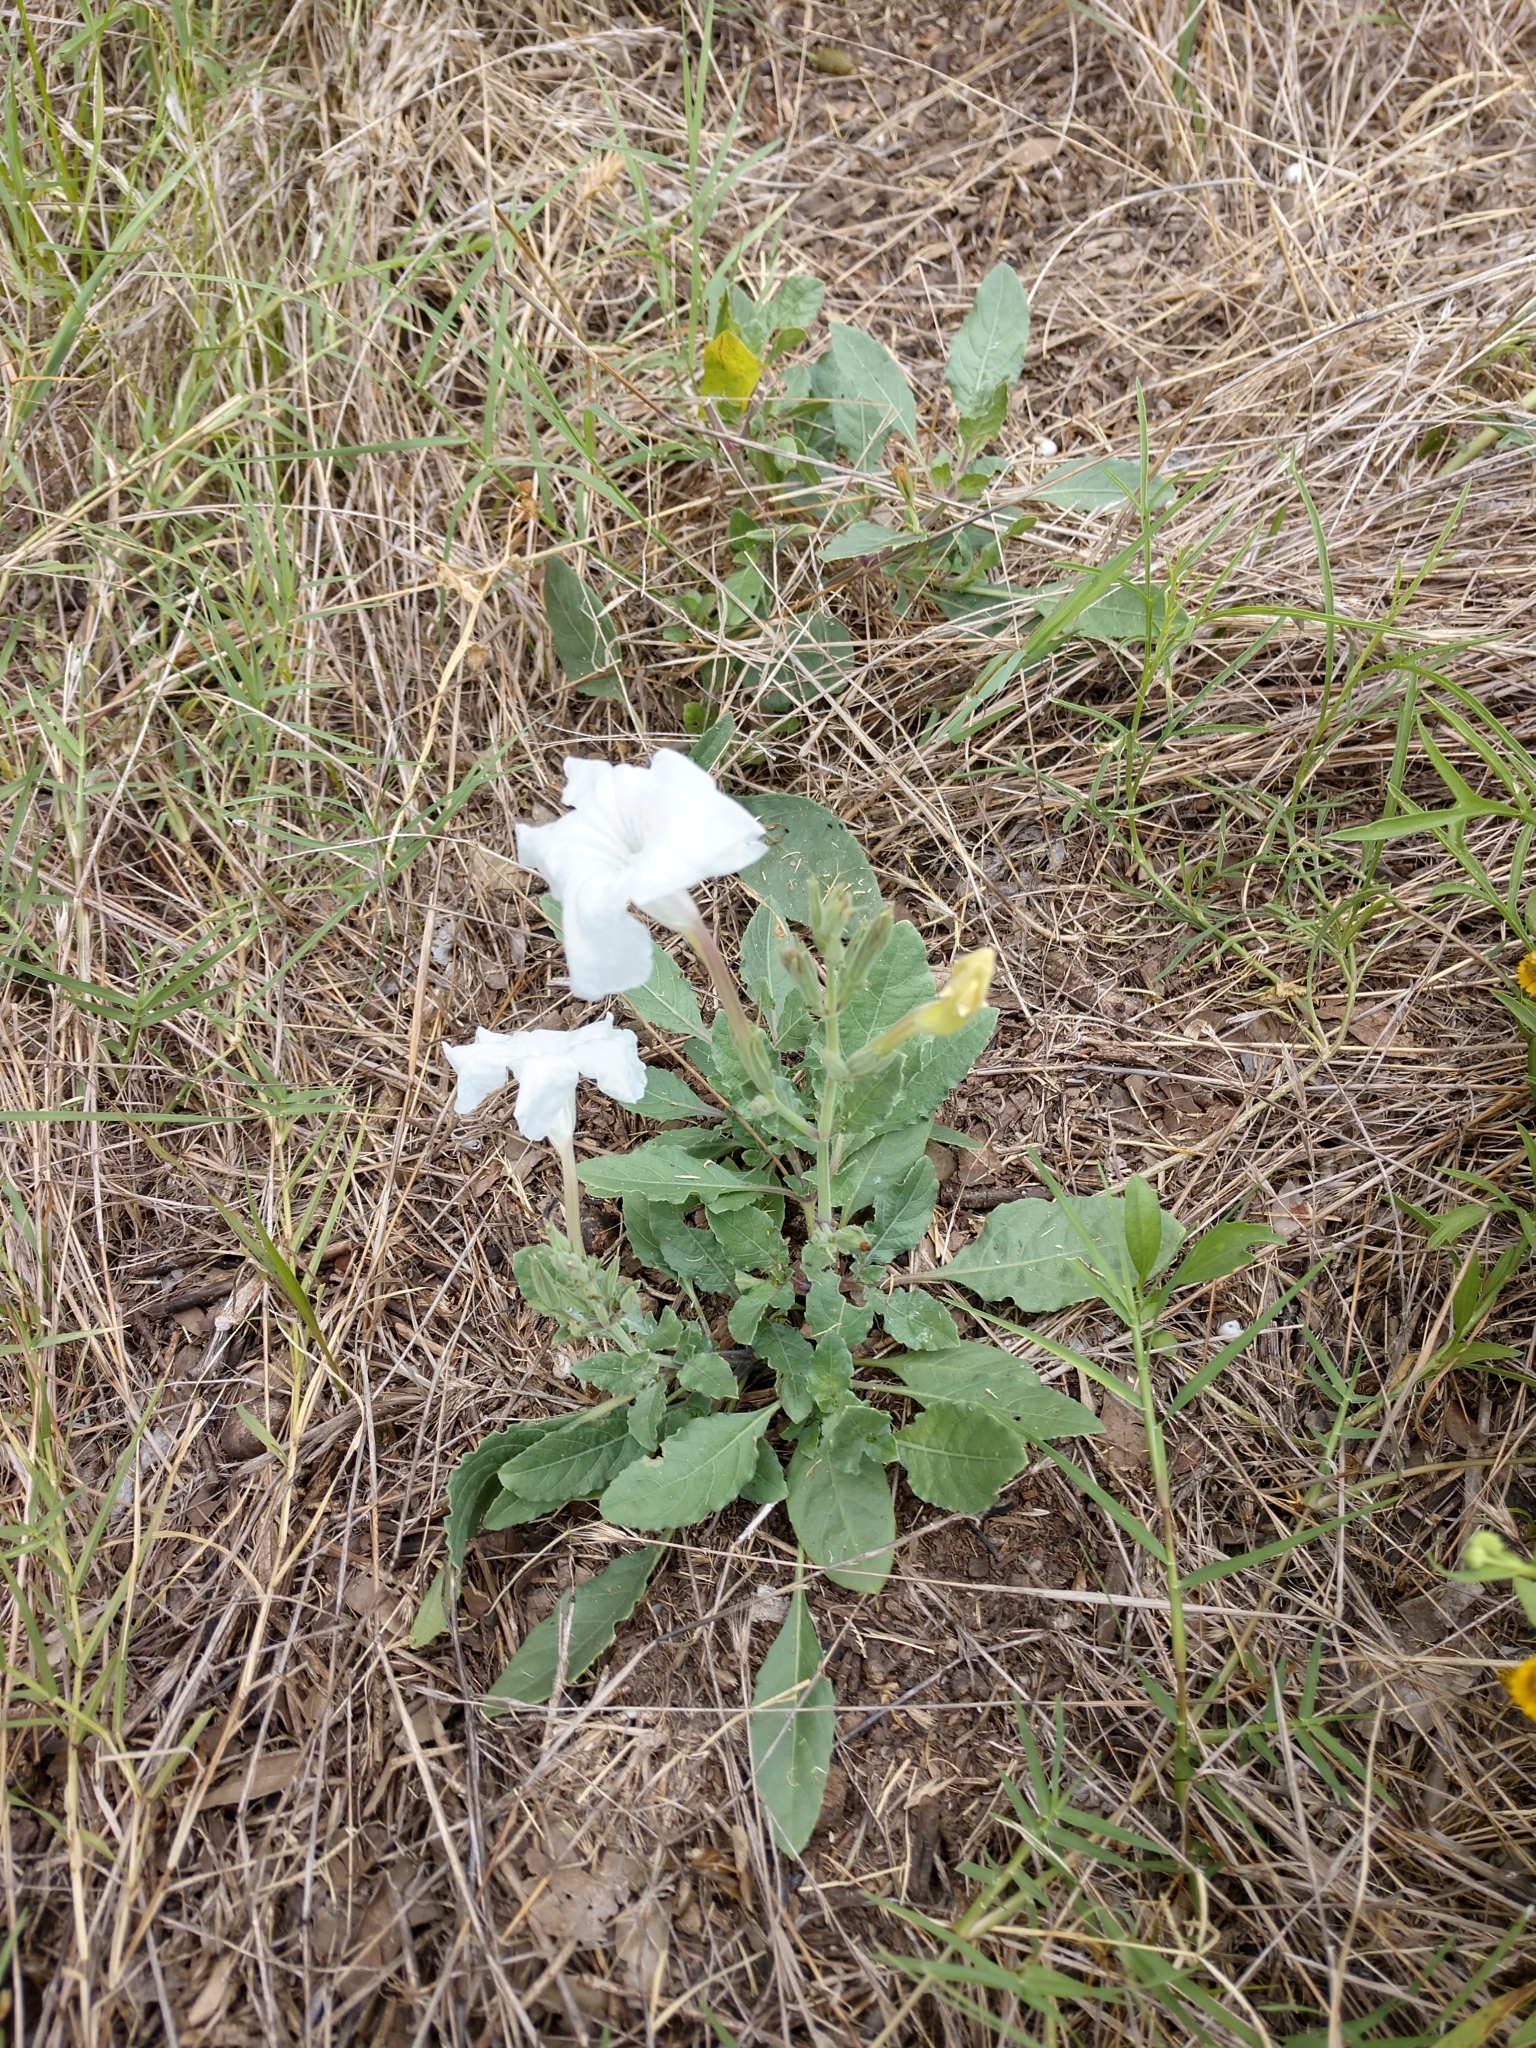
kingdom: Plantae
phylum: Tracheophyta
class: Magnoliopsida
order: Lamiales
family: Acanthaceae
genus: Ruellia
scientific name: Ruellia metziae
